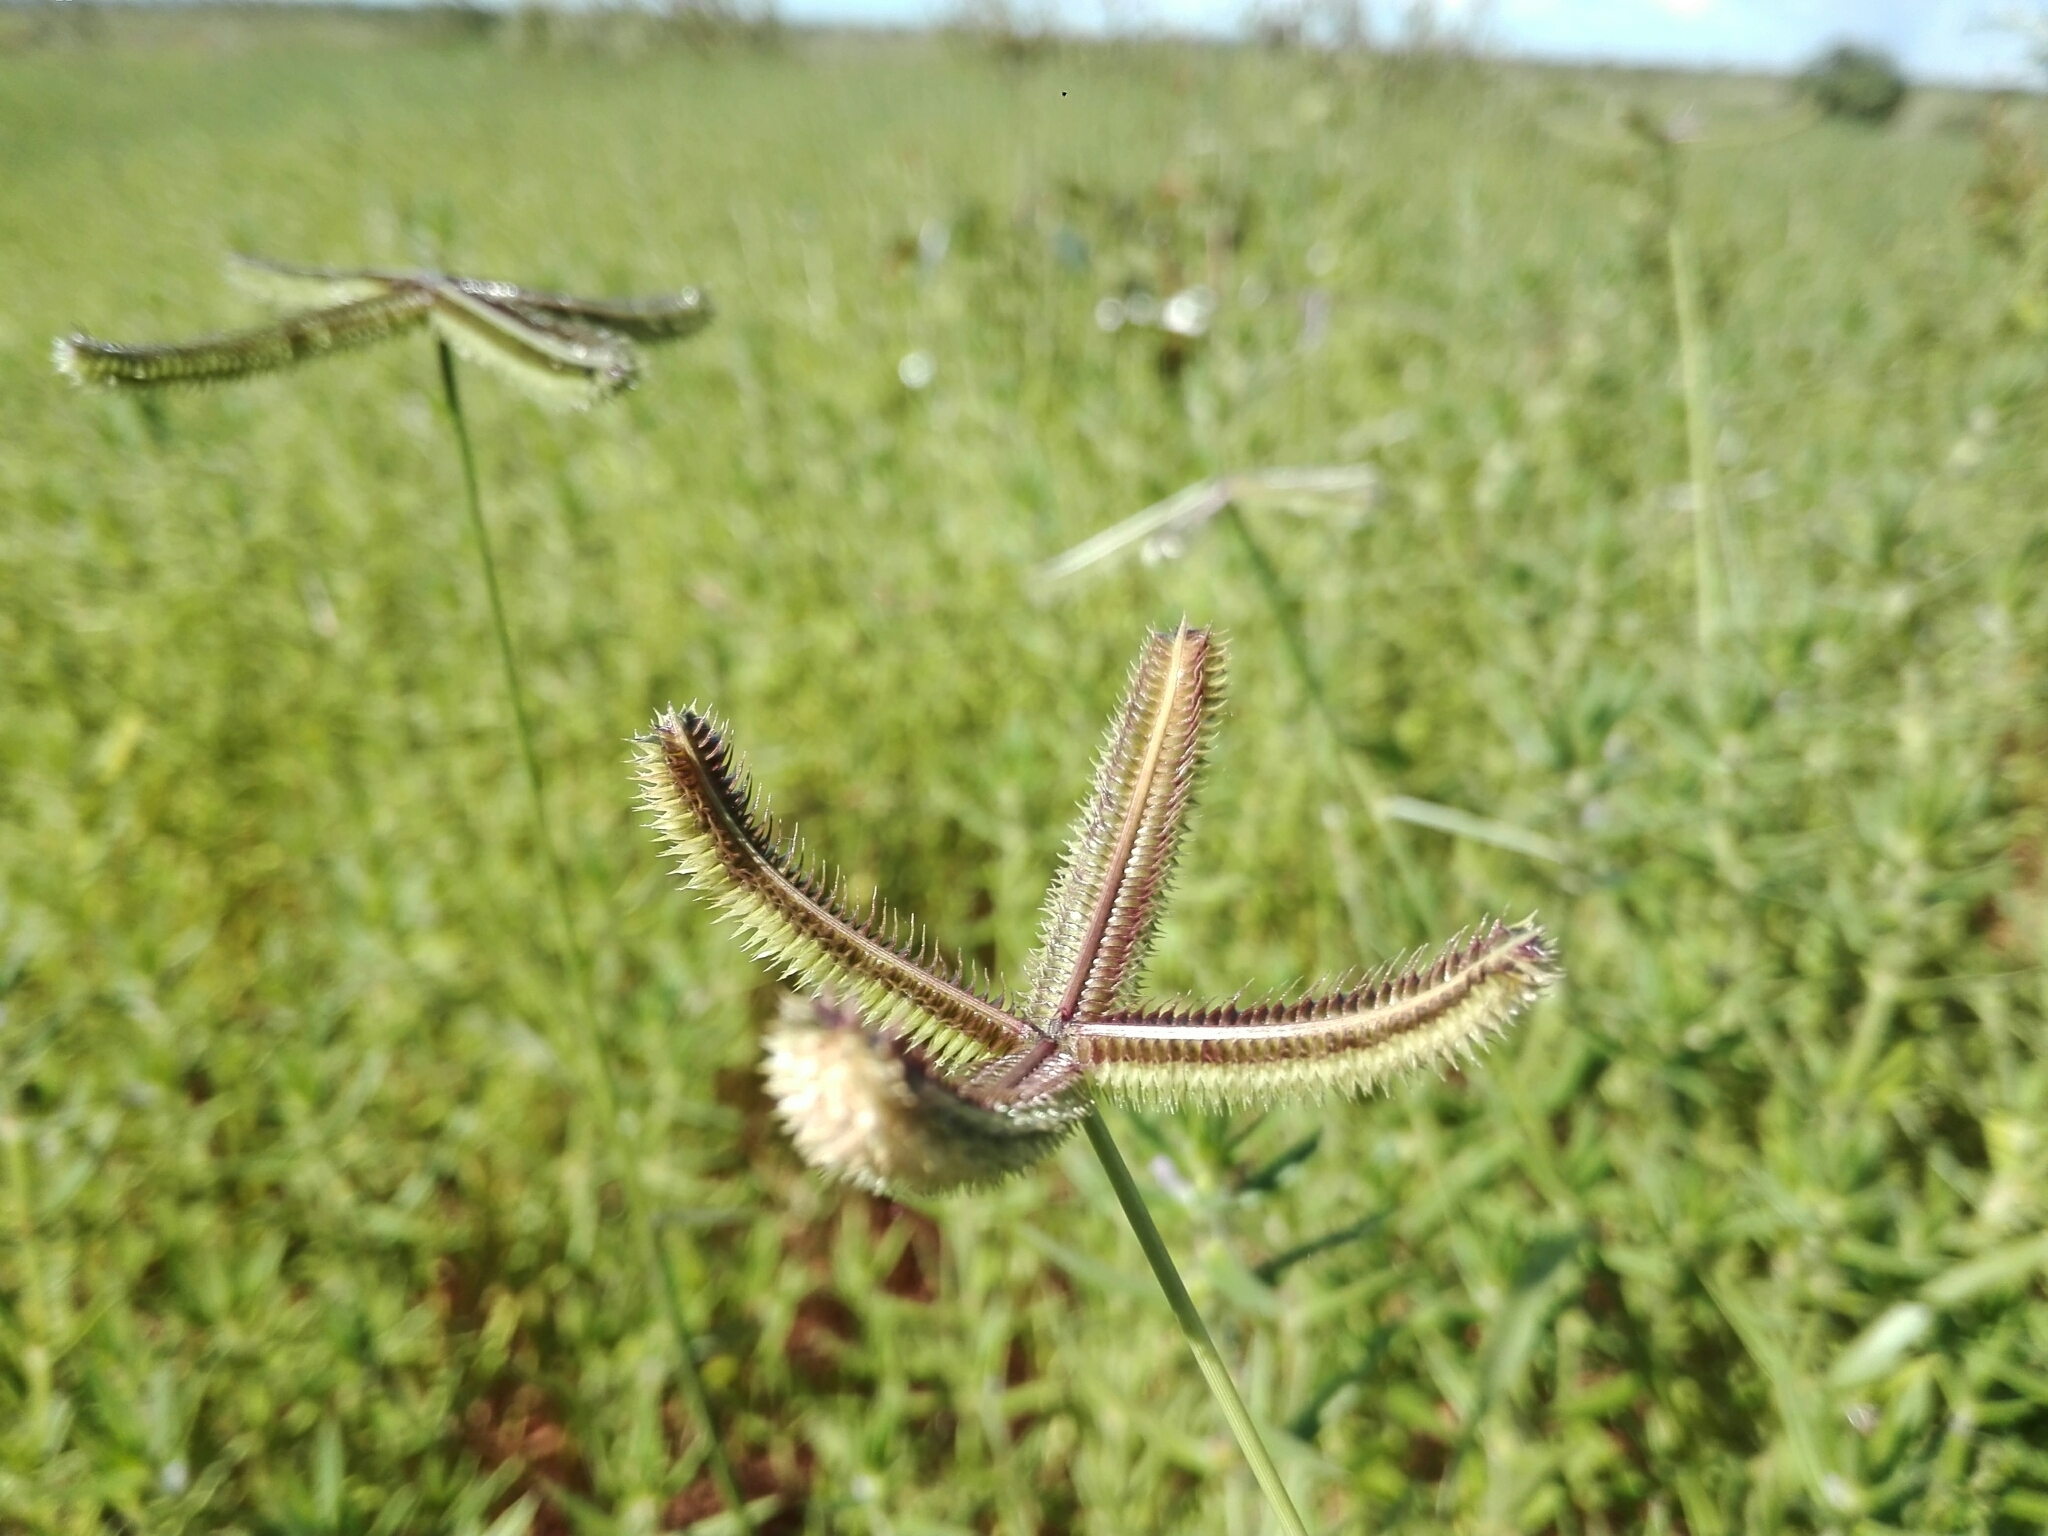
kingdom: Plantae
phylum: Tracheophyta
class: Liliopsida
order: Poales
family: Poaceae
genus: Dactyloctenium
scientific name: Dactyloctenium aegyptium
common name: Egyptian grass
